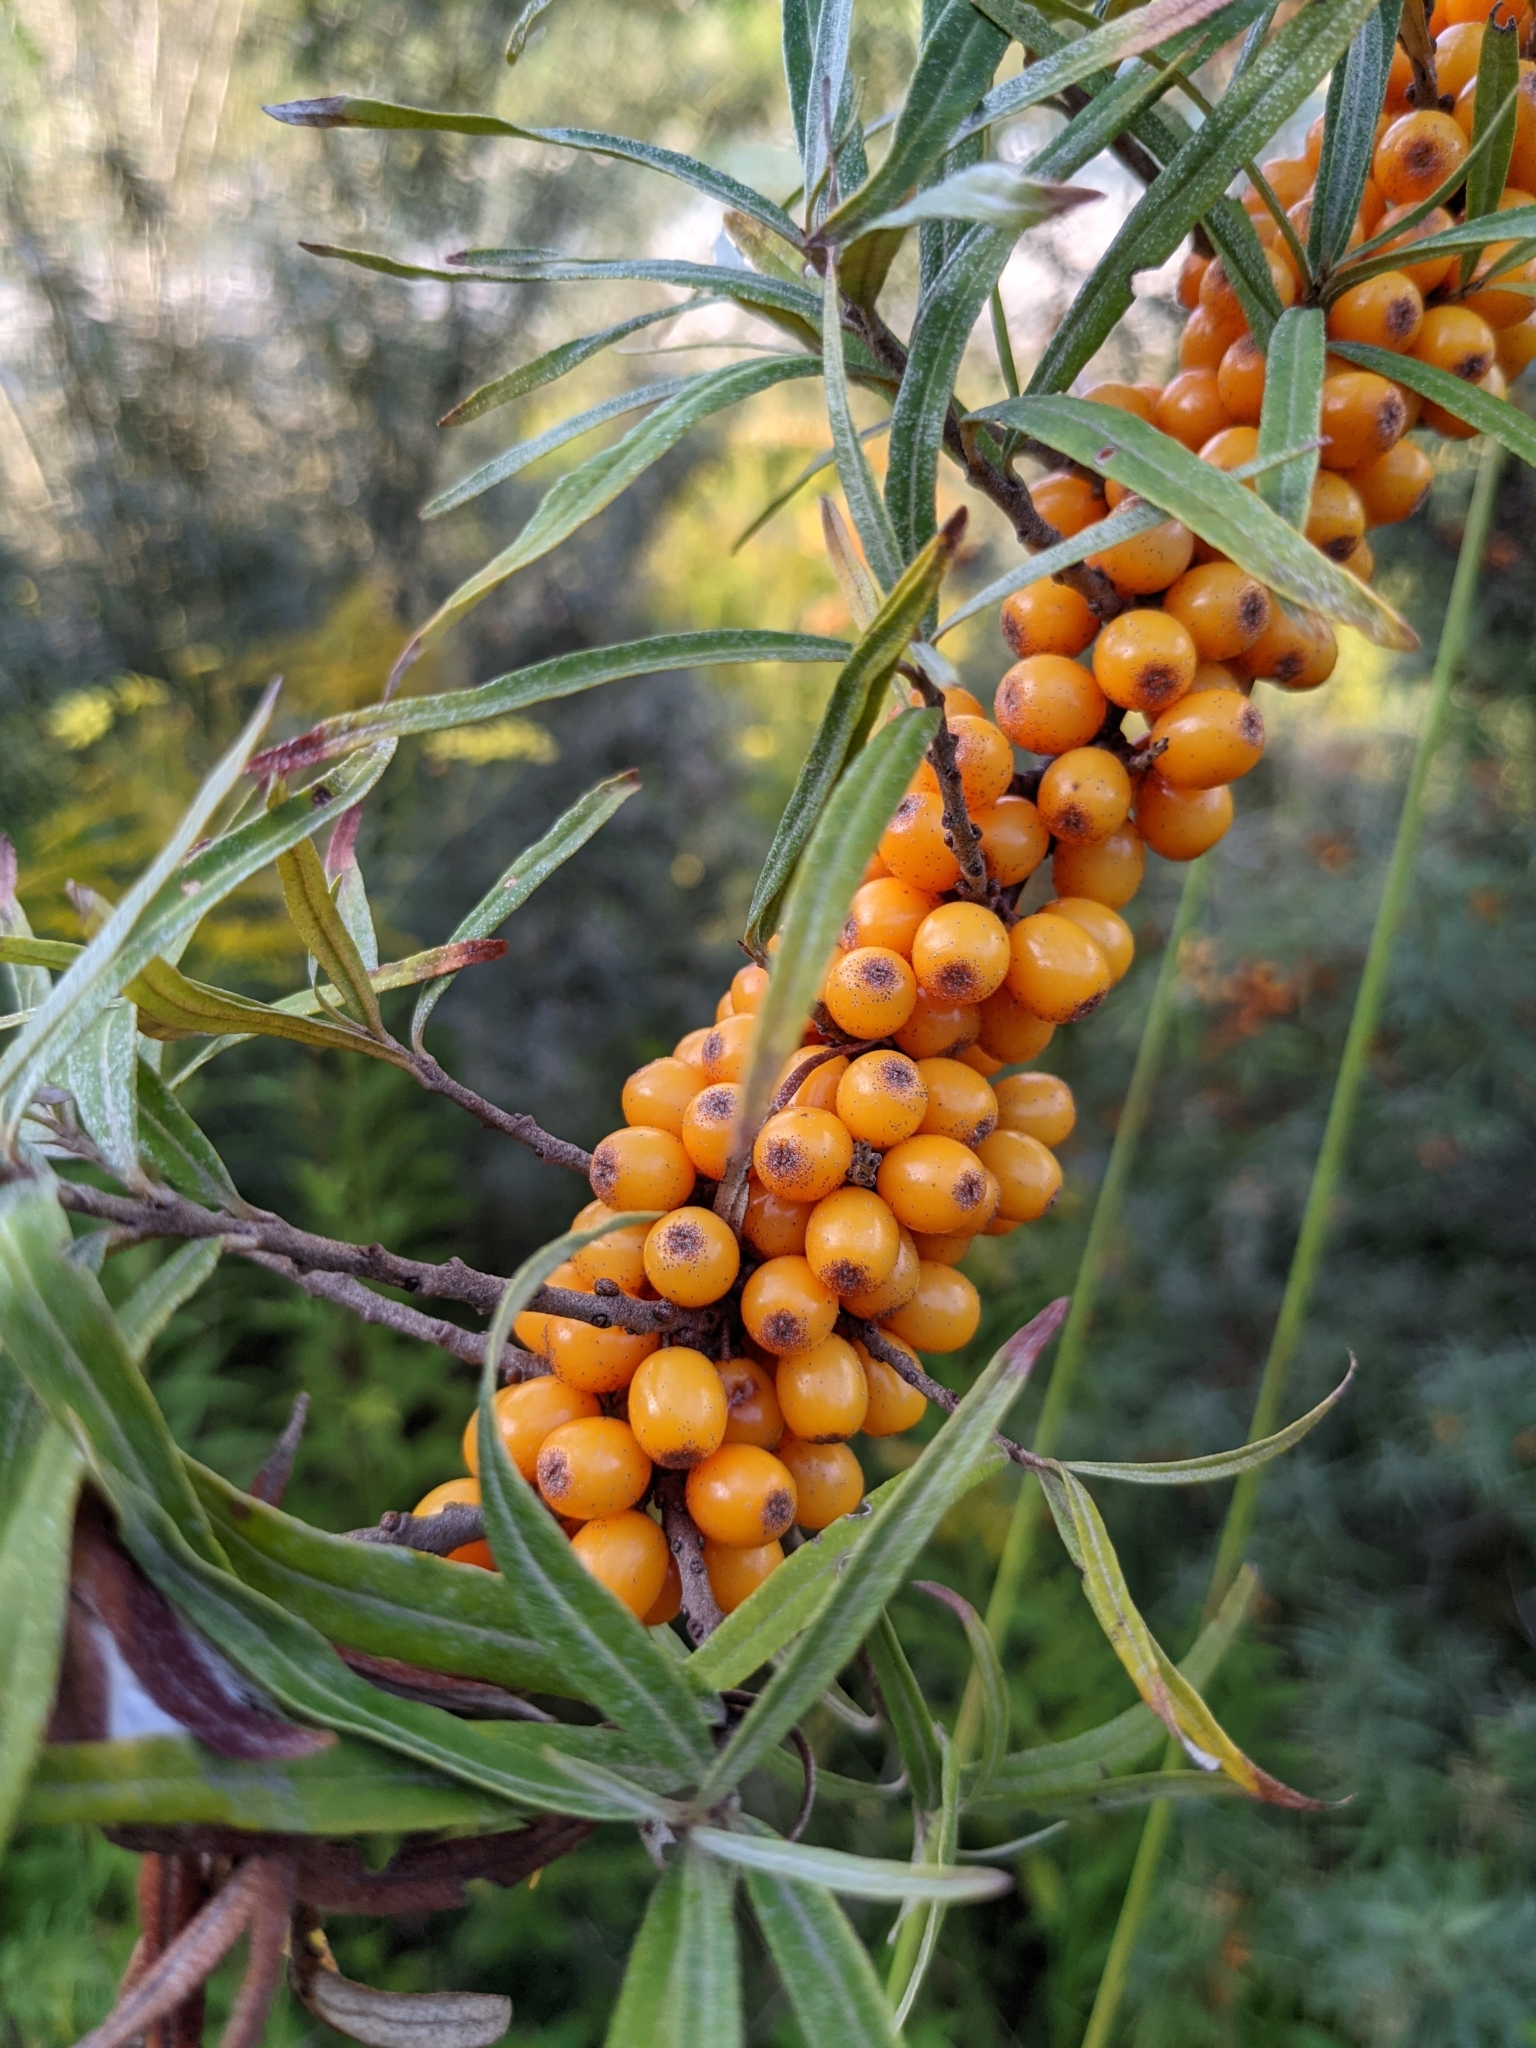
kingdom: Plantae
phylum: Tracheophyta
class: Magnoliopsida
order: Rosales
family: Elaeagnaceae
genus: Hippophae
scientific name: Hippophae rhamnoides
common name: Sea-buckthorn
